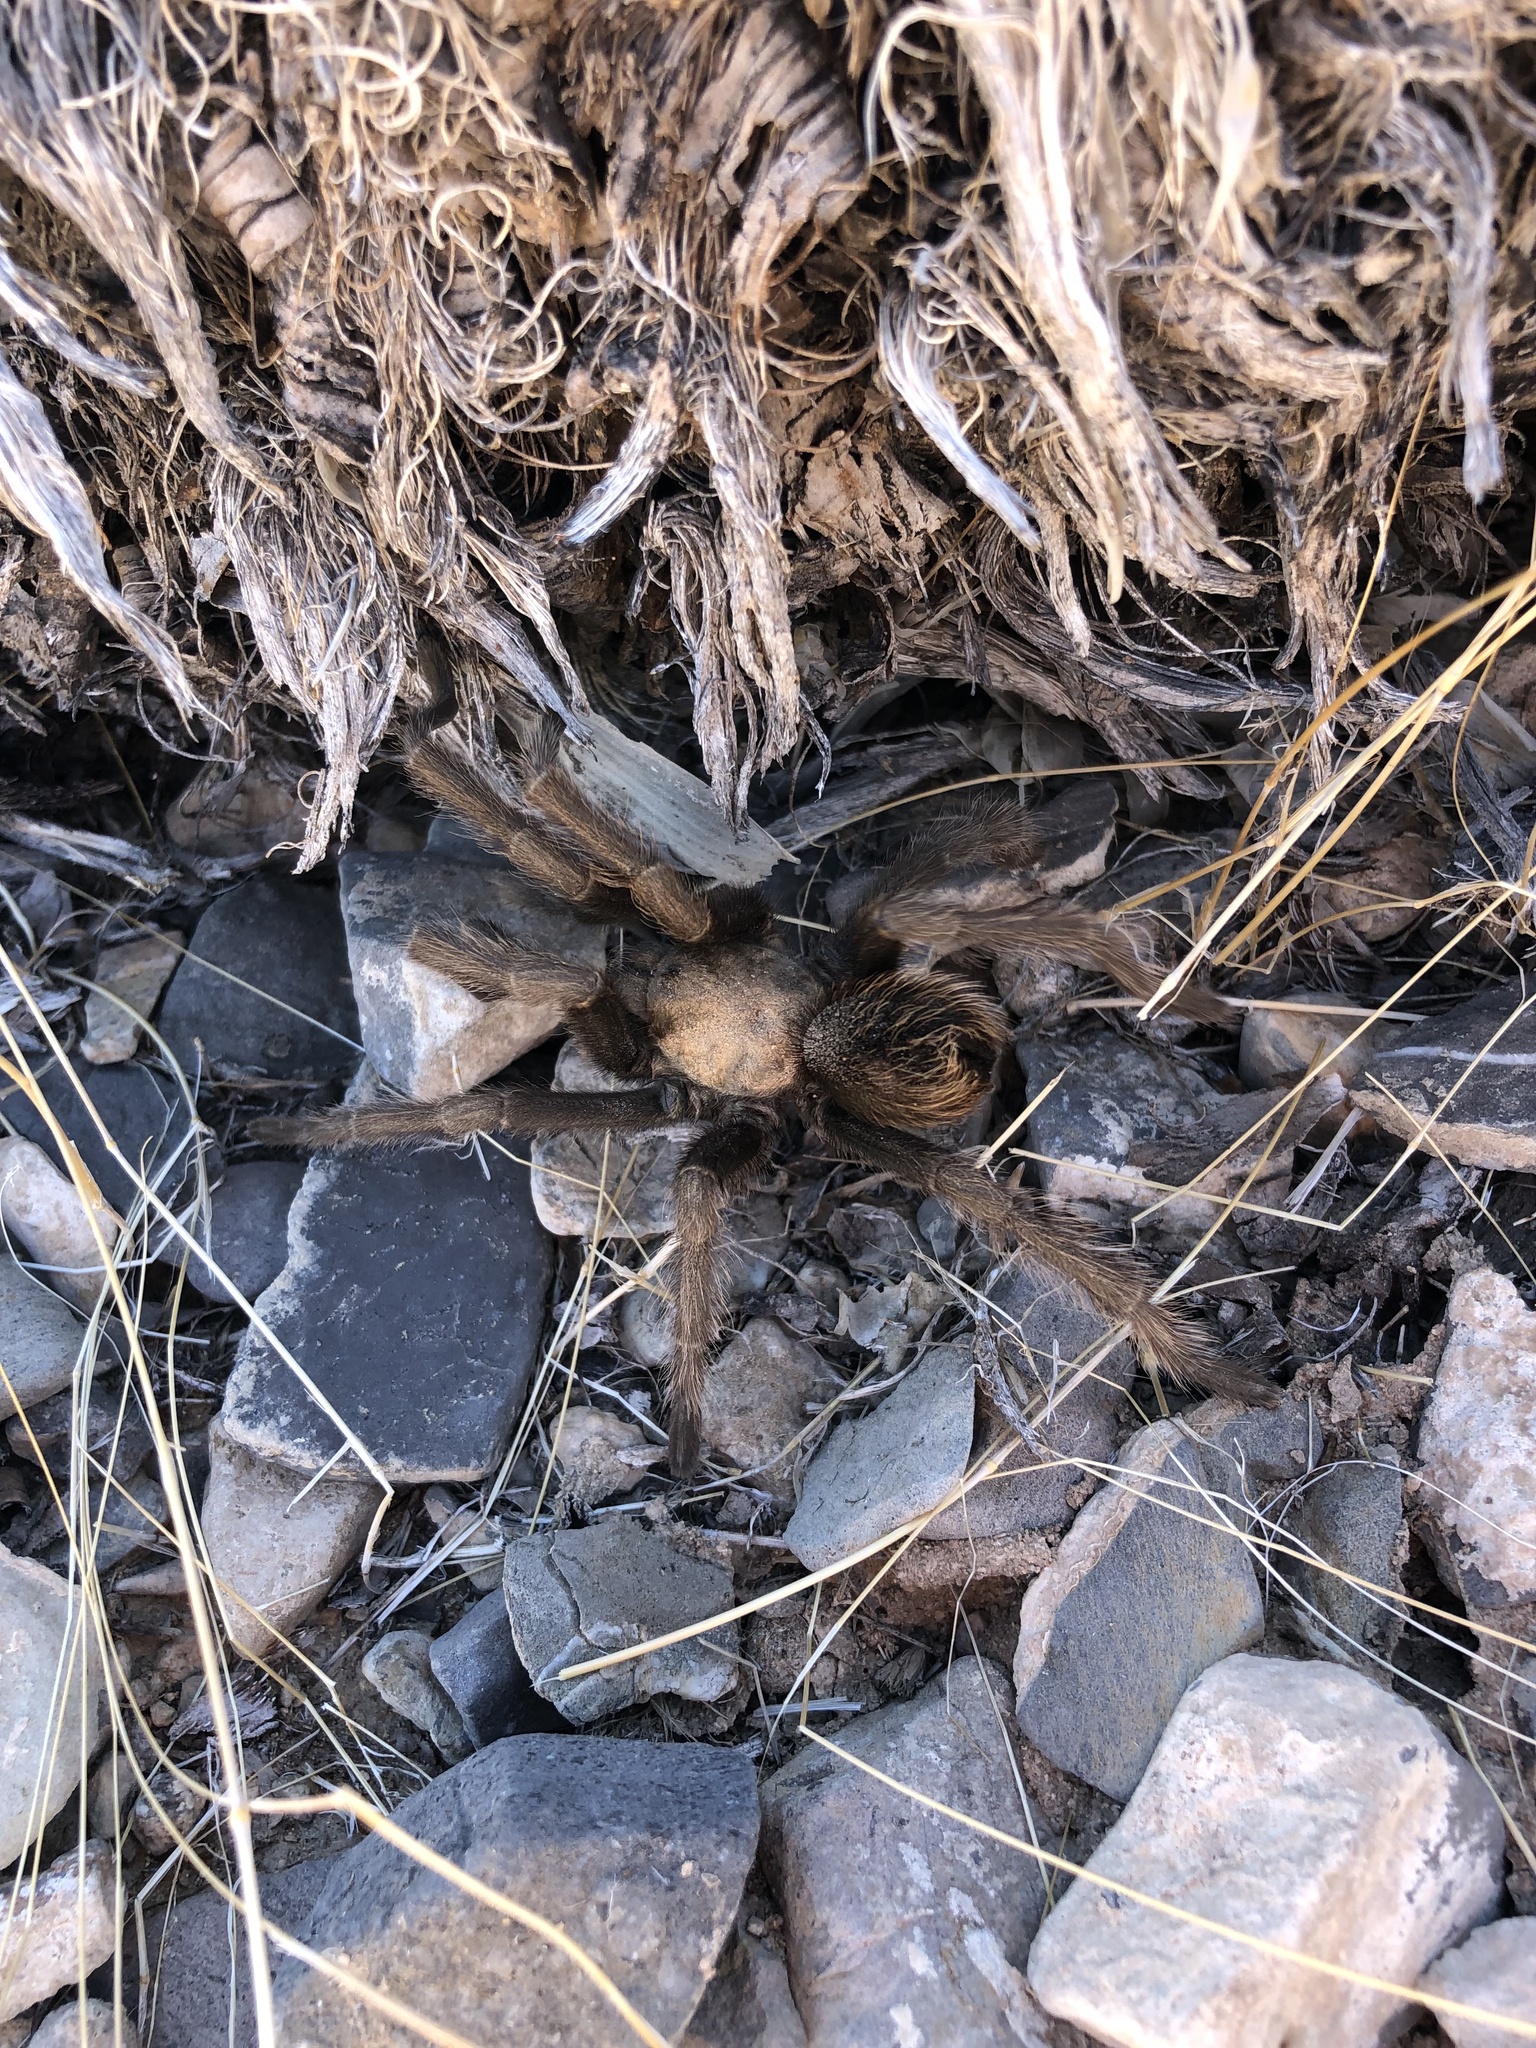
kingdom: Animalia
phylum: Arthropoda
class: Arachnida
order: Araneae
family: Theraphosidae
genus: Aphonopelma
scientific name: Aphonopelma iodius
